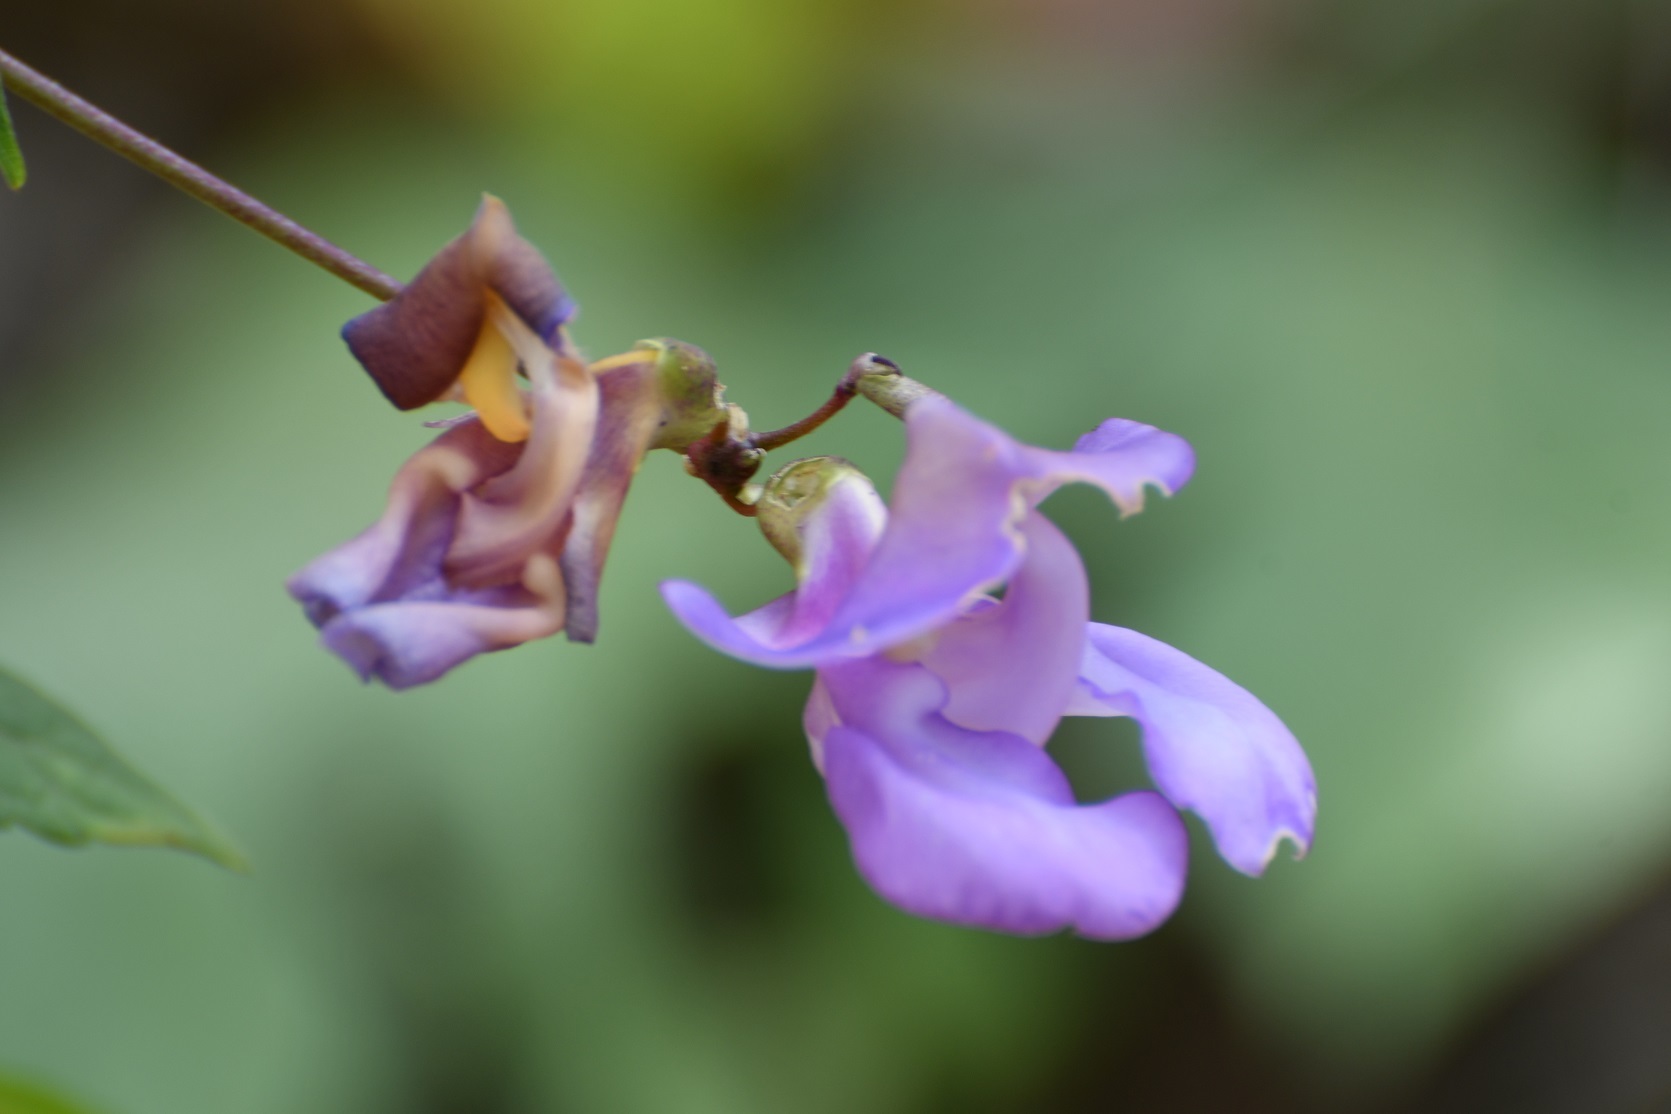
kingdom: Plantae
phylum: Tracheophyta
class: Magnoliopsida
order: Fabales
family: Fabaceae
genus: Sigmoidotropis
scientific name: Sigmoidotropis speciosa
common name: Snail flower
